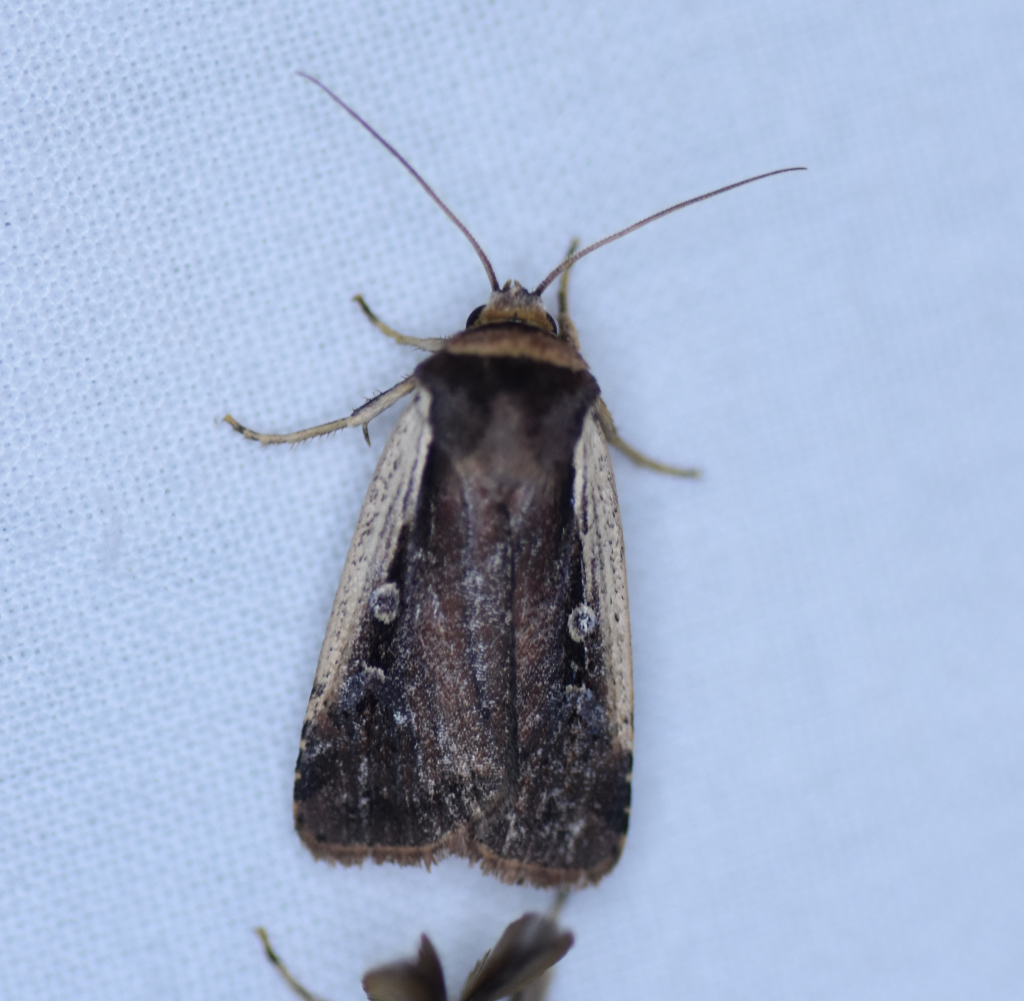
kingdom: Animalia
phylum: Arthropoda
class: Insecta
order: Lepidoptera
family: Noctuidae
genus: Ochropleura
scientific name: Ochropleura implecta
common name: Flame-shouldered dart
